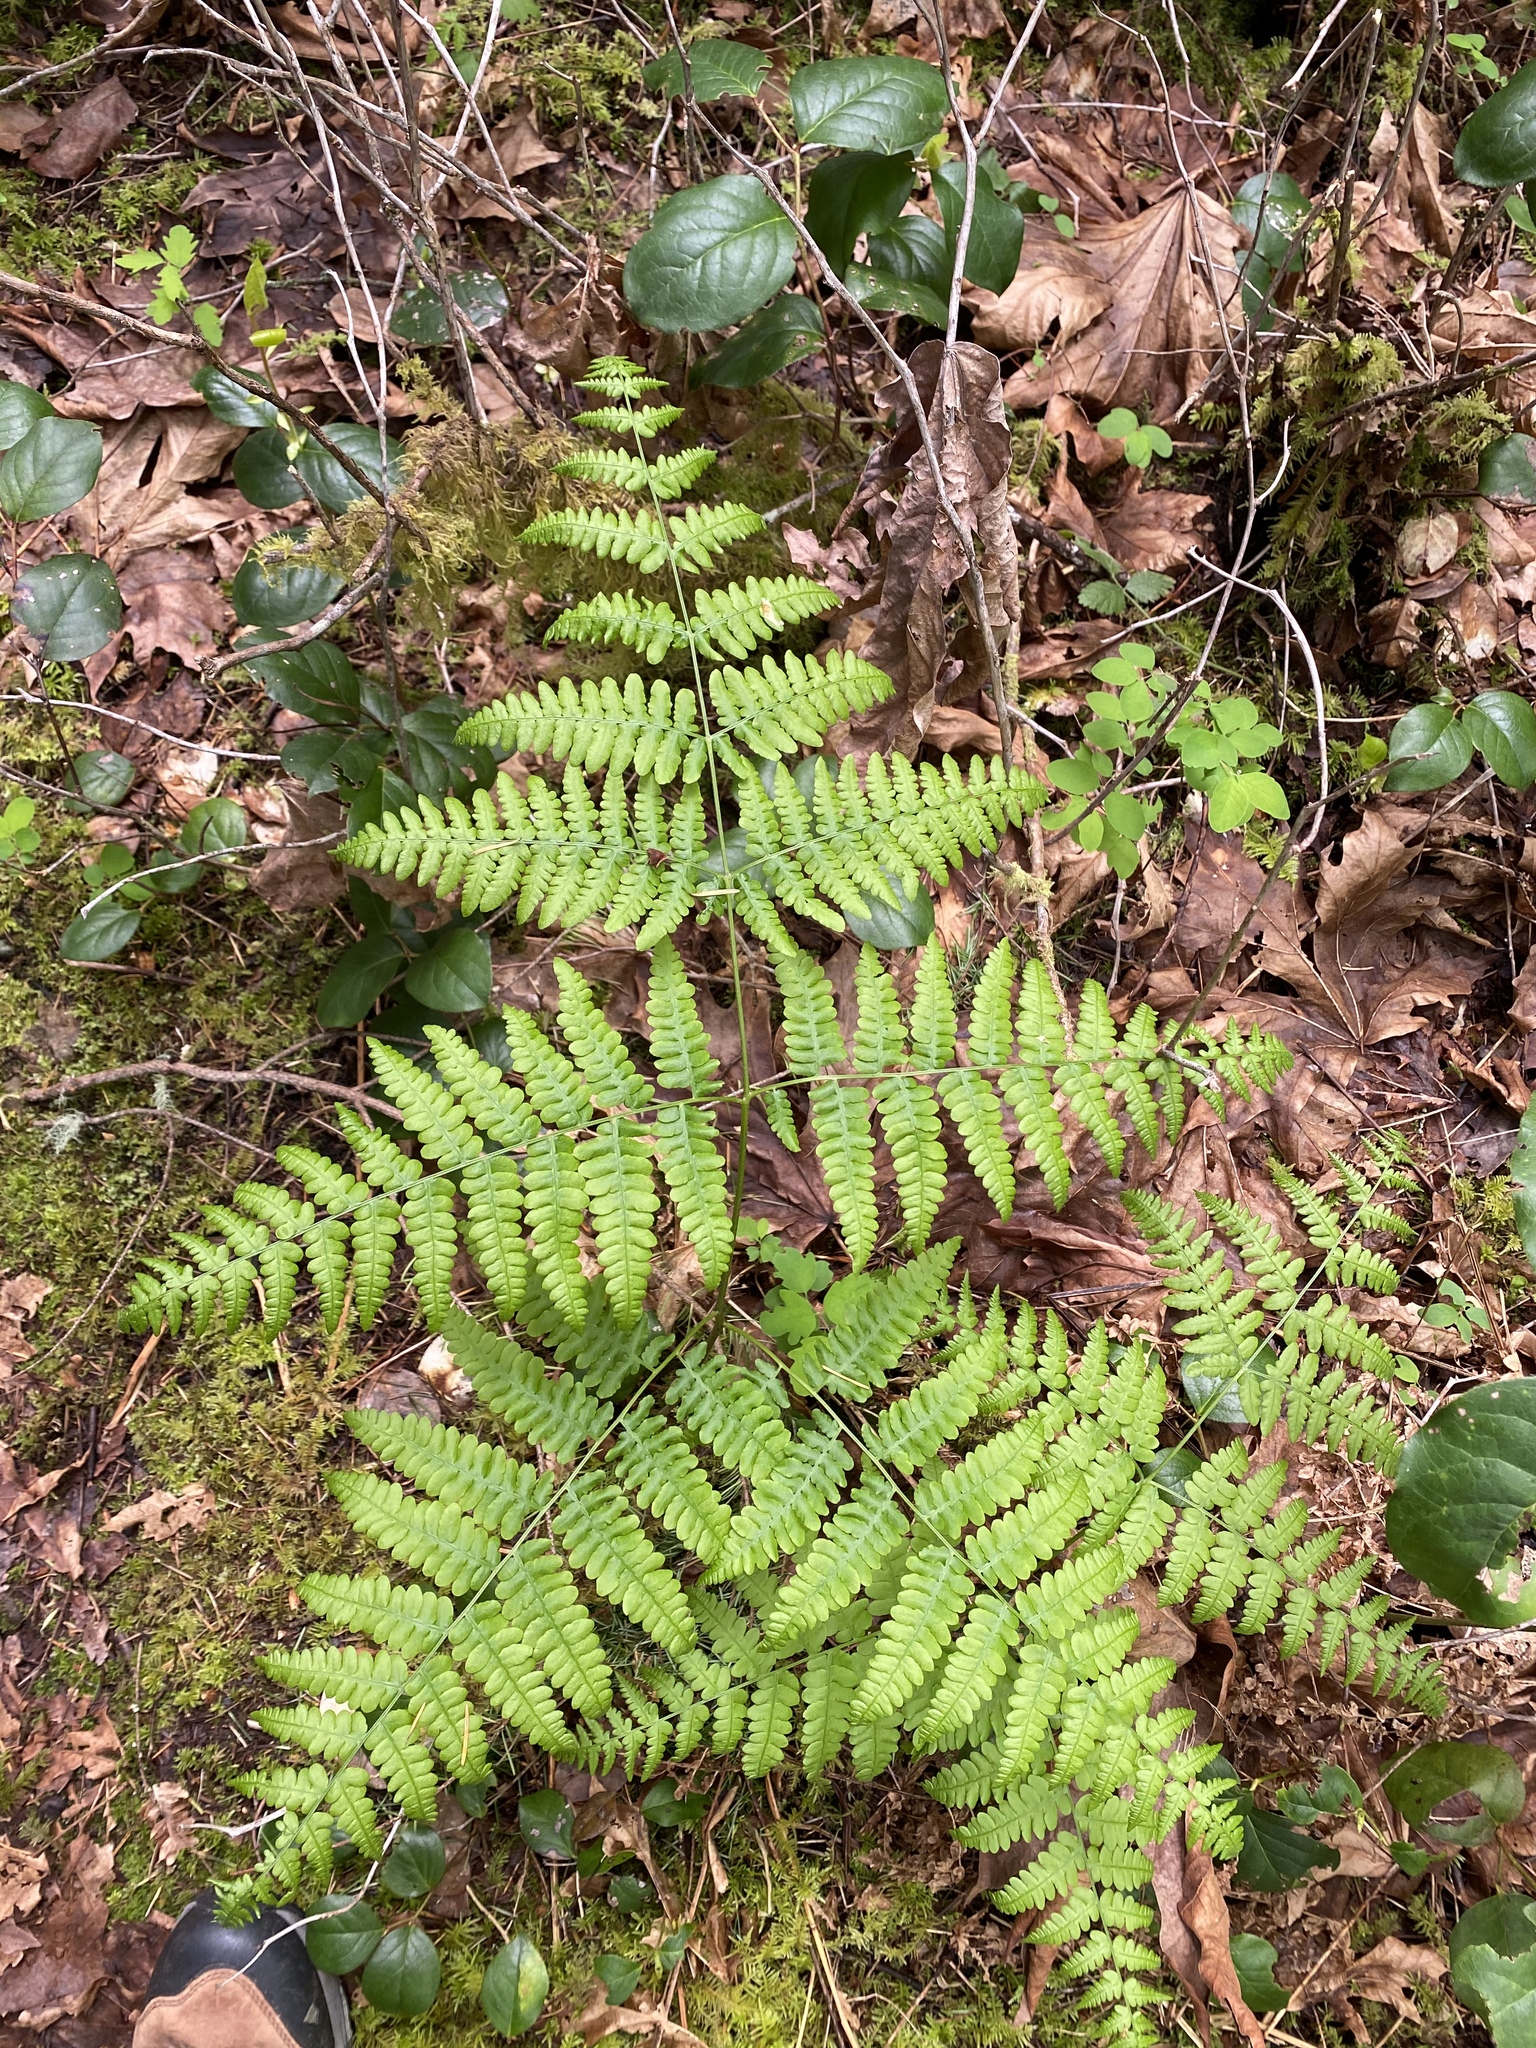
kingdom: Plantae
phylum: Tracheophyta
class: Polypodiopsida
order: Polypodiales
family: Dennstaedtiaceae
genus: Pteridium
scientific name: Pteridium aquilinum
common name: Bracken
